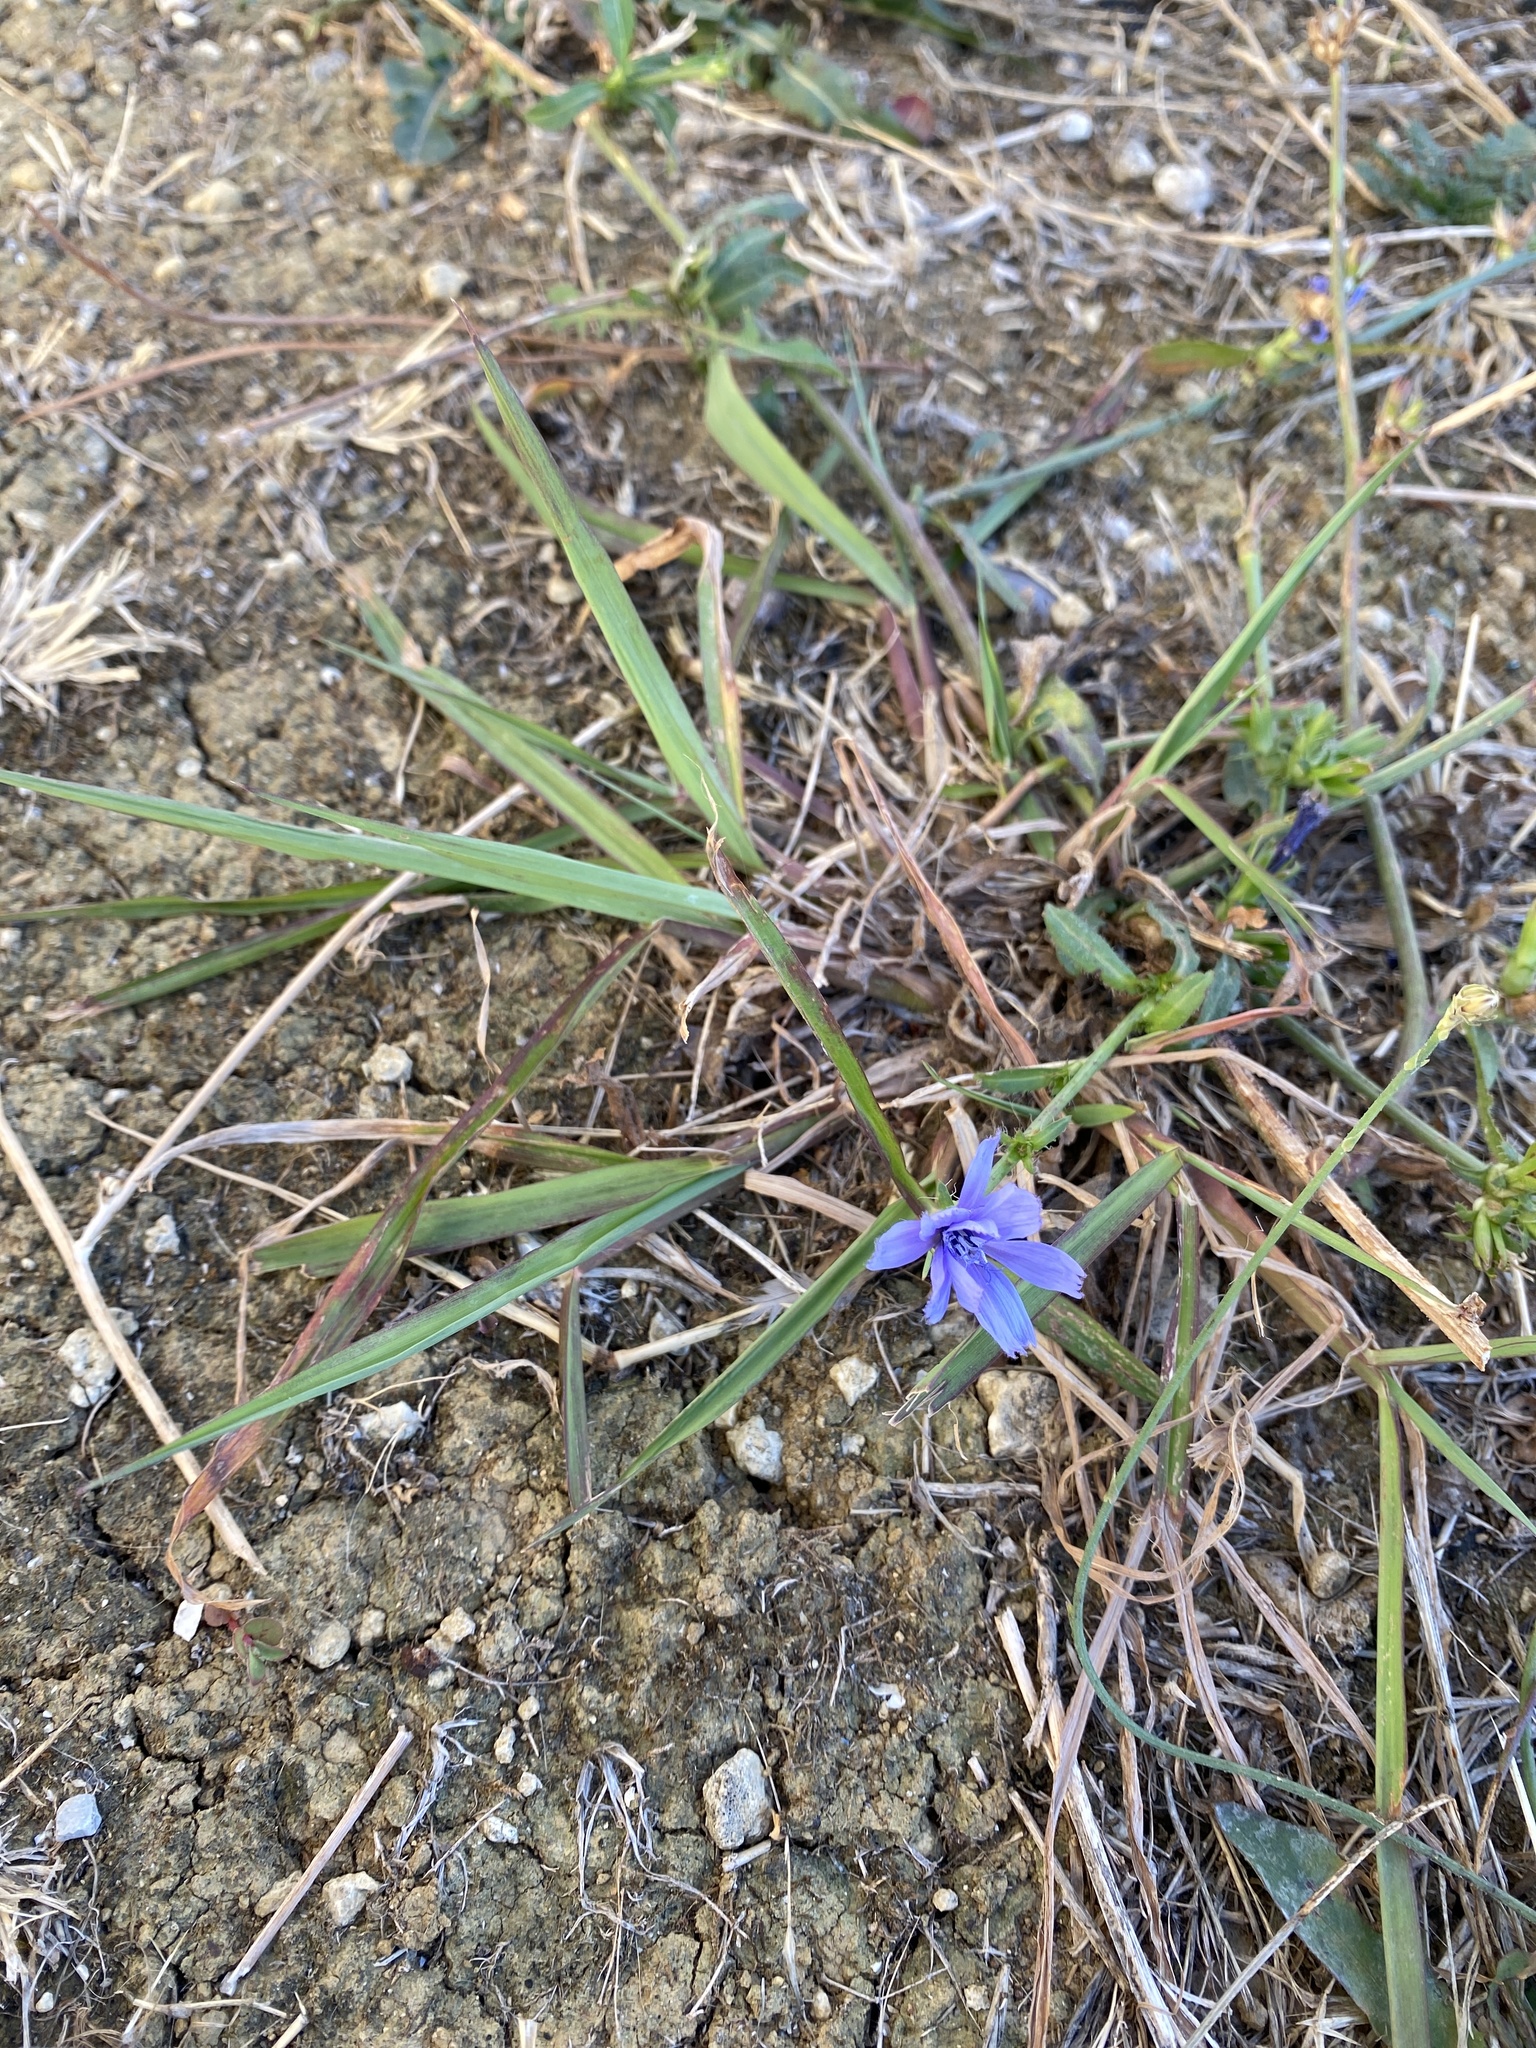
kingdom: Plantae
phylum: Tracheophyta
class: Magnoliopsida
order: Asterales
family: Asteraceae
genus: Cichorium
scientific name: Cichorium intybus
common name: Chicory
